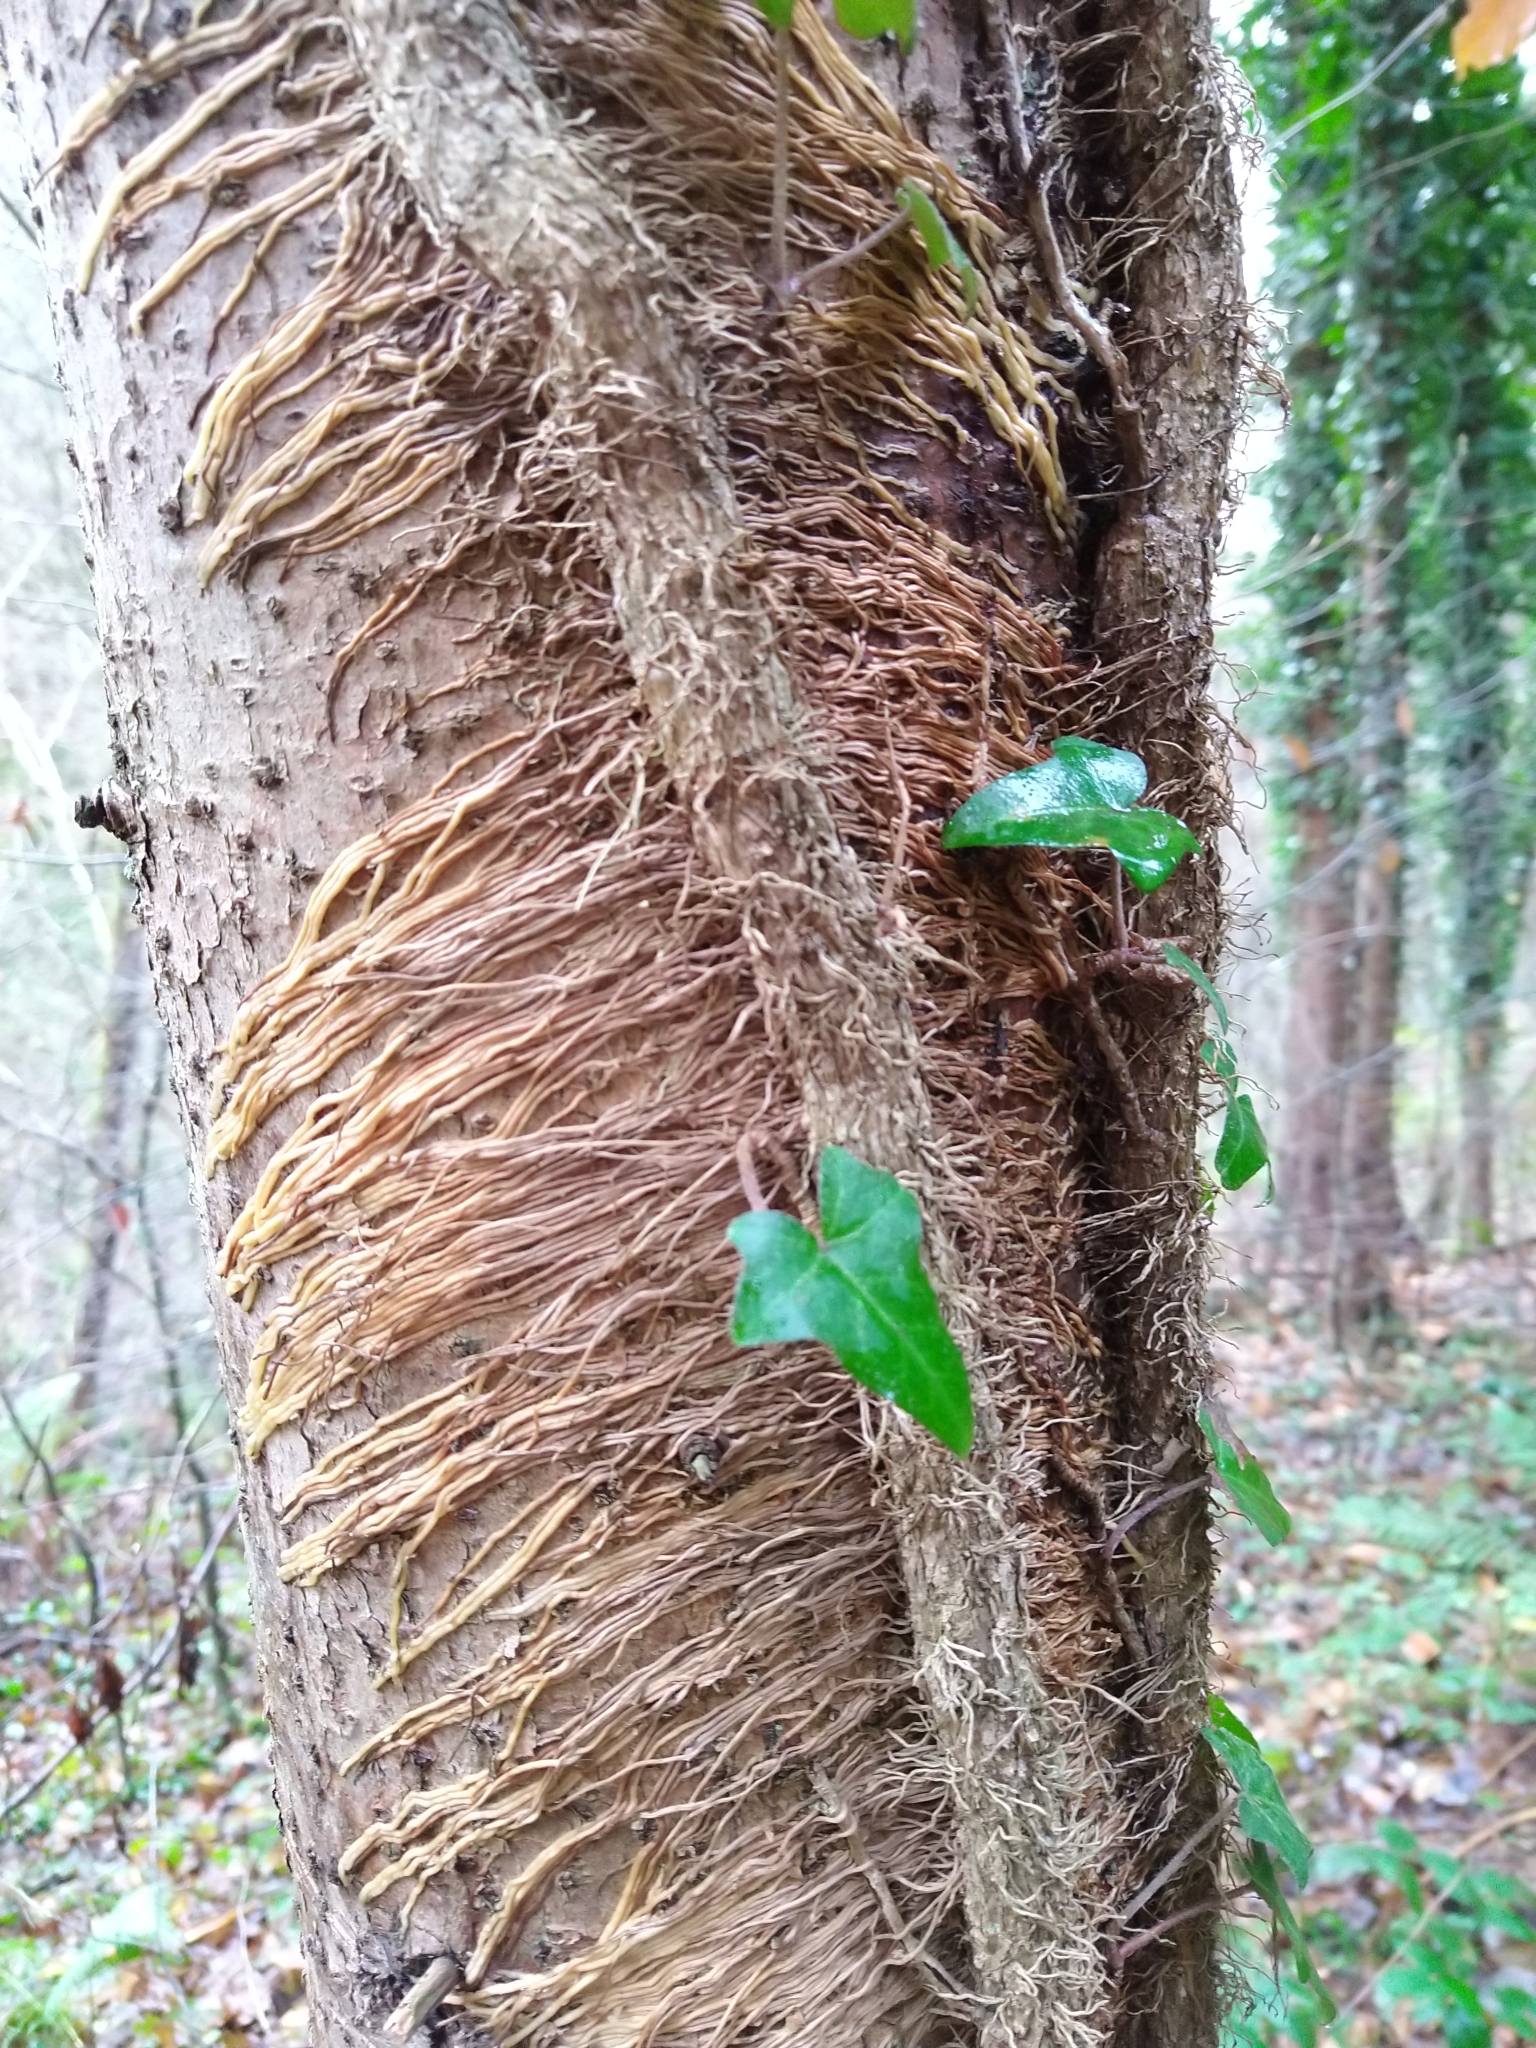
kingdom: Plantae
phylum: Tracheophyta
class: Magnoliopsida
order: Apiales
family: Araliaceae
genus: Hedera
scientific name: Hedera helix
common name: Ivy
